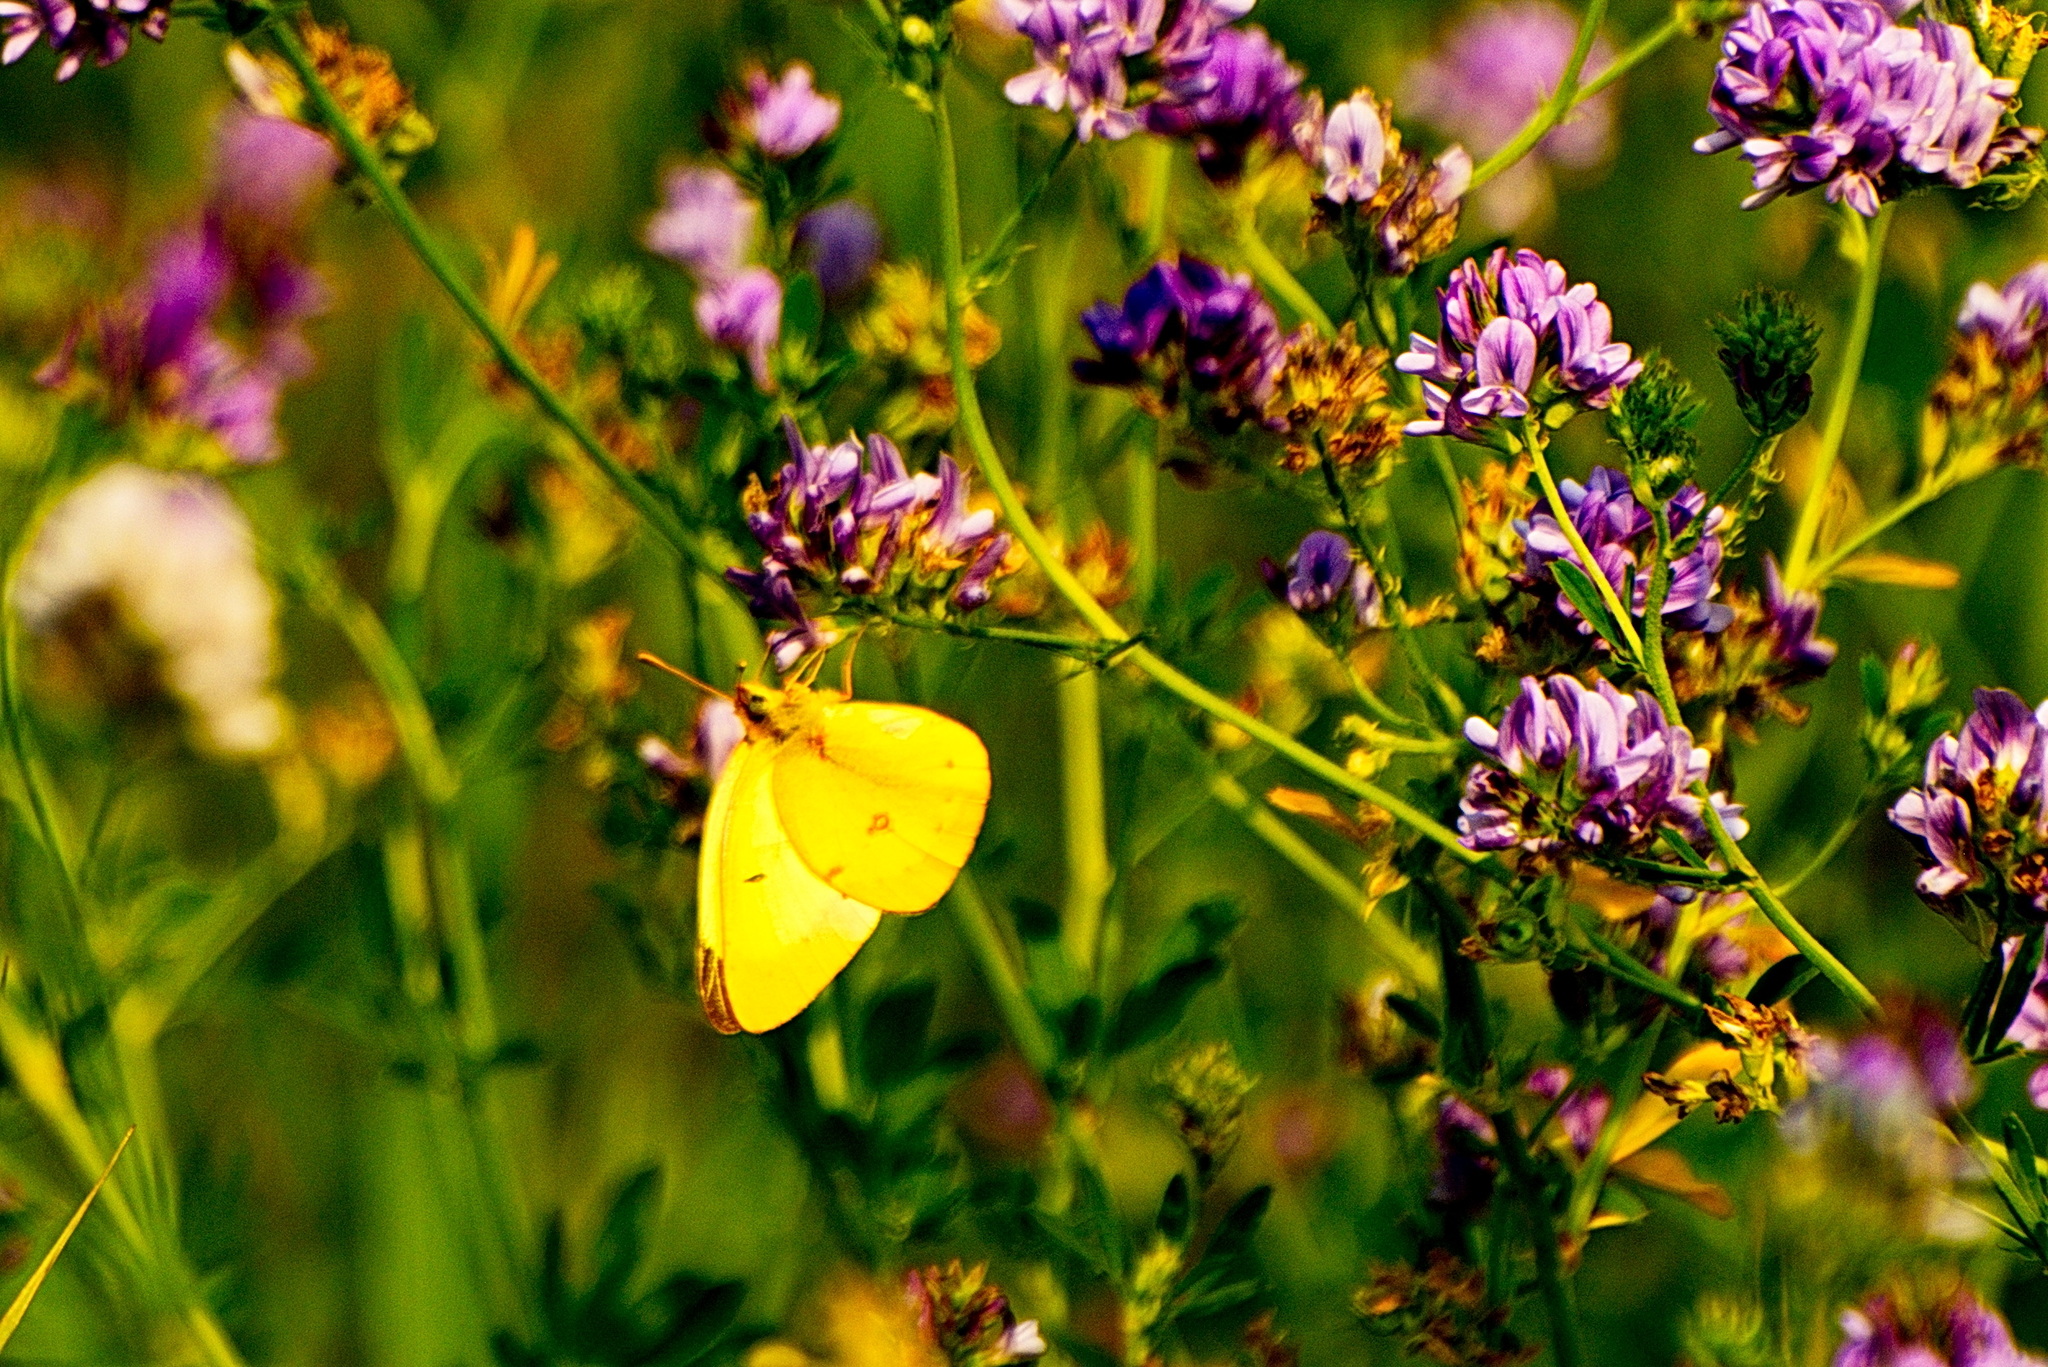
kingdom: Animalia
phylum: Arthropoda
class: Insecta
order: Lepidoptera
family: Pieridae
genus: Colias
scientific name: Colias philodice
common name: Clouded sulphur
